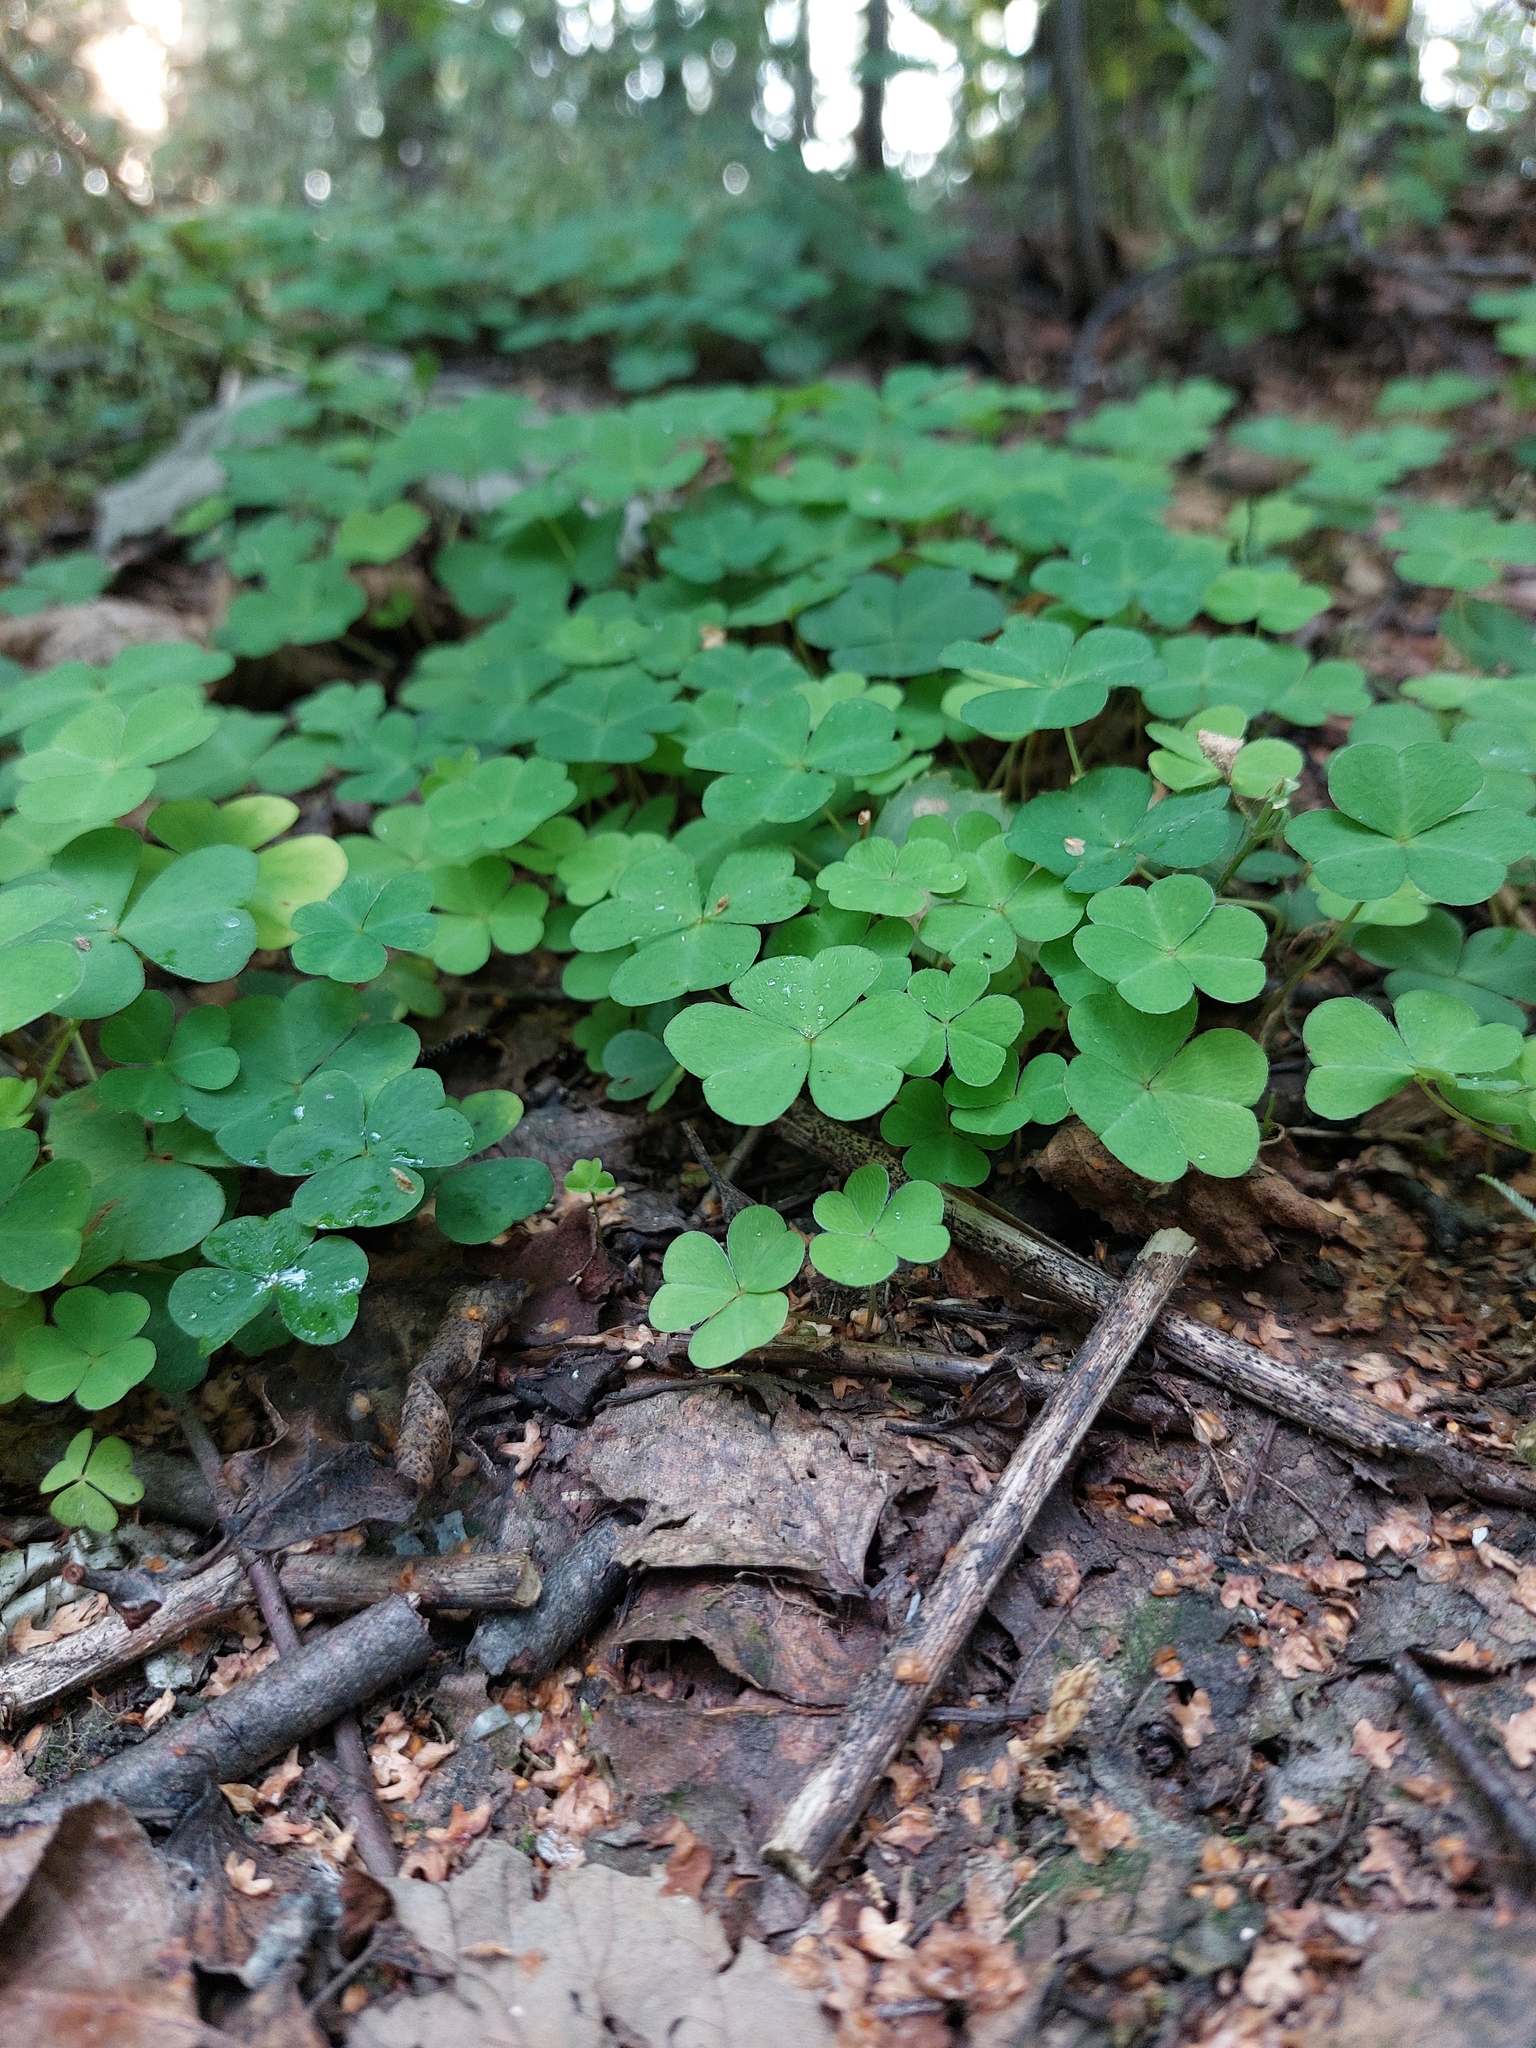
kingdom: Plantae
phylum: Tracheophyta
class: Magnoliopsida
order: Oxalidales
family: Oxalidaceae
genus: Oxalis
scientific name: Oxalis acetosella
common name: Wood-sorrel
